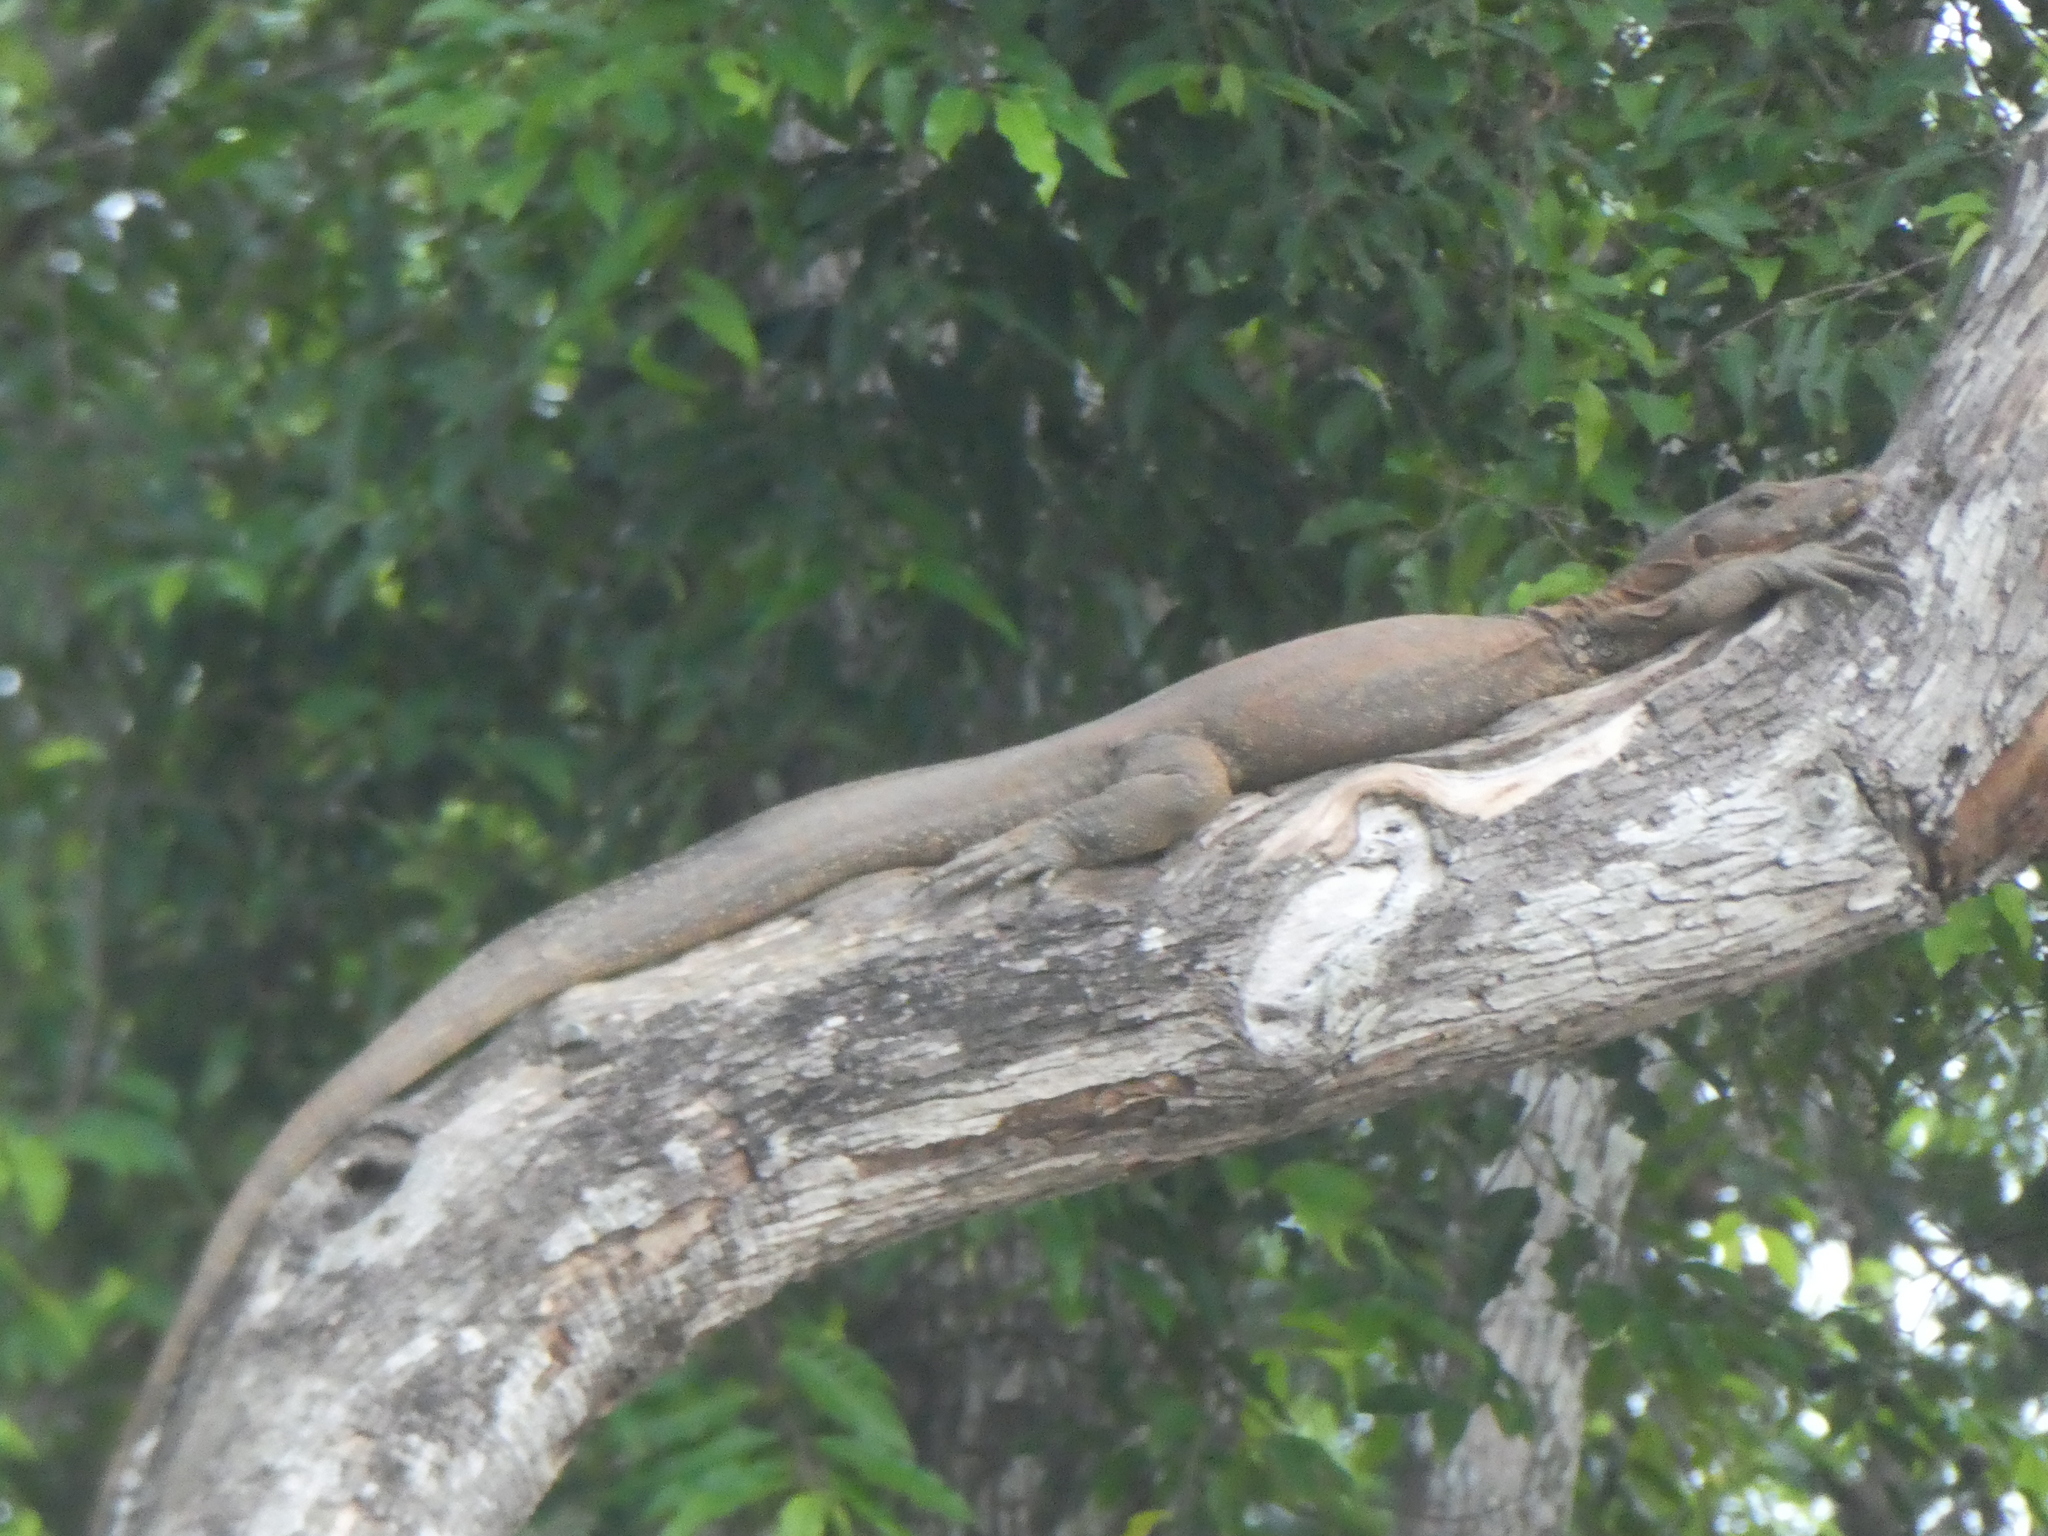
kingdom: Animalia
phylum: Chordata
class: Squamata
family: Varanidae
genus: Varanus
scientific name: Varanus salvator
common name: Common water monitor
